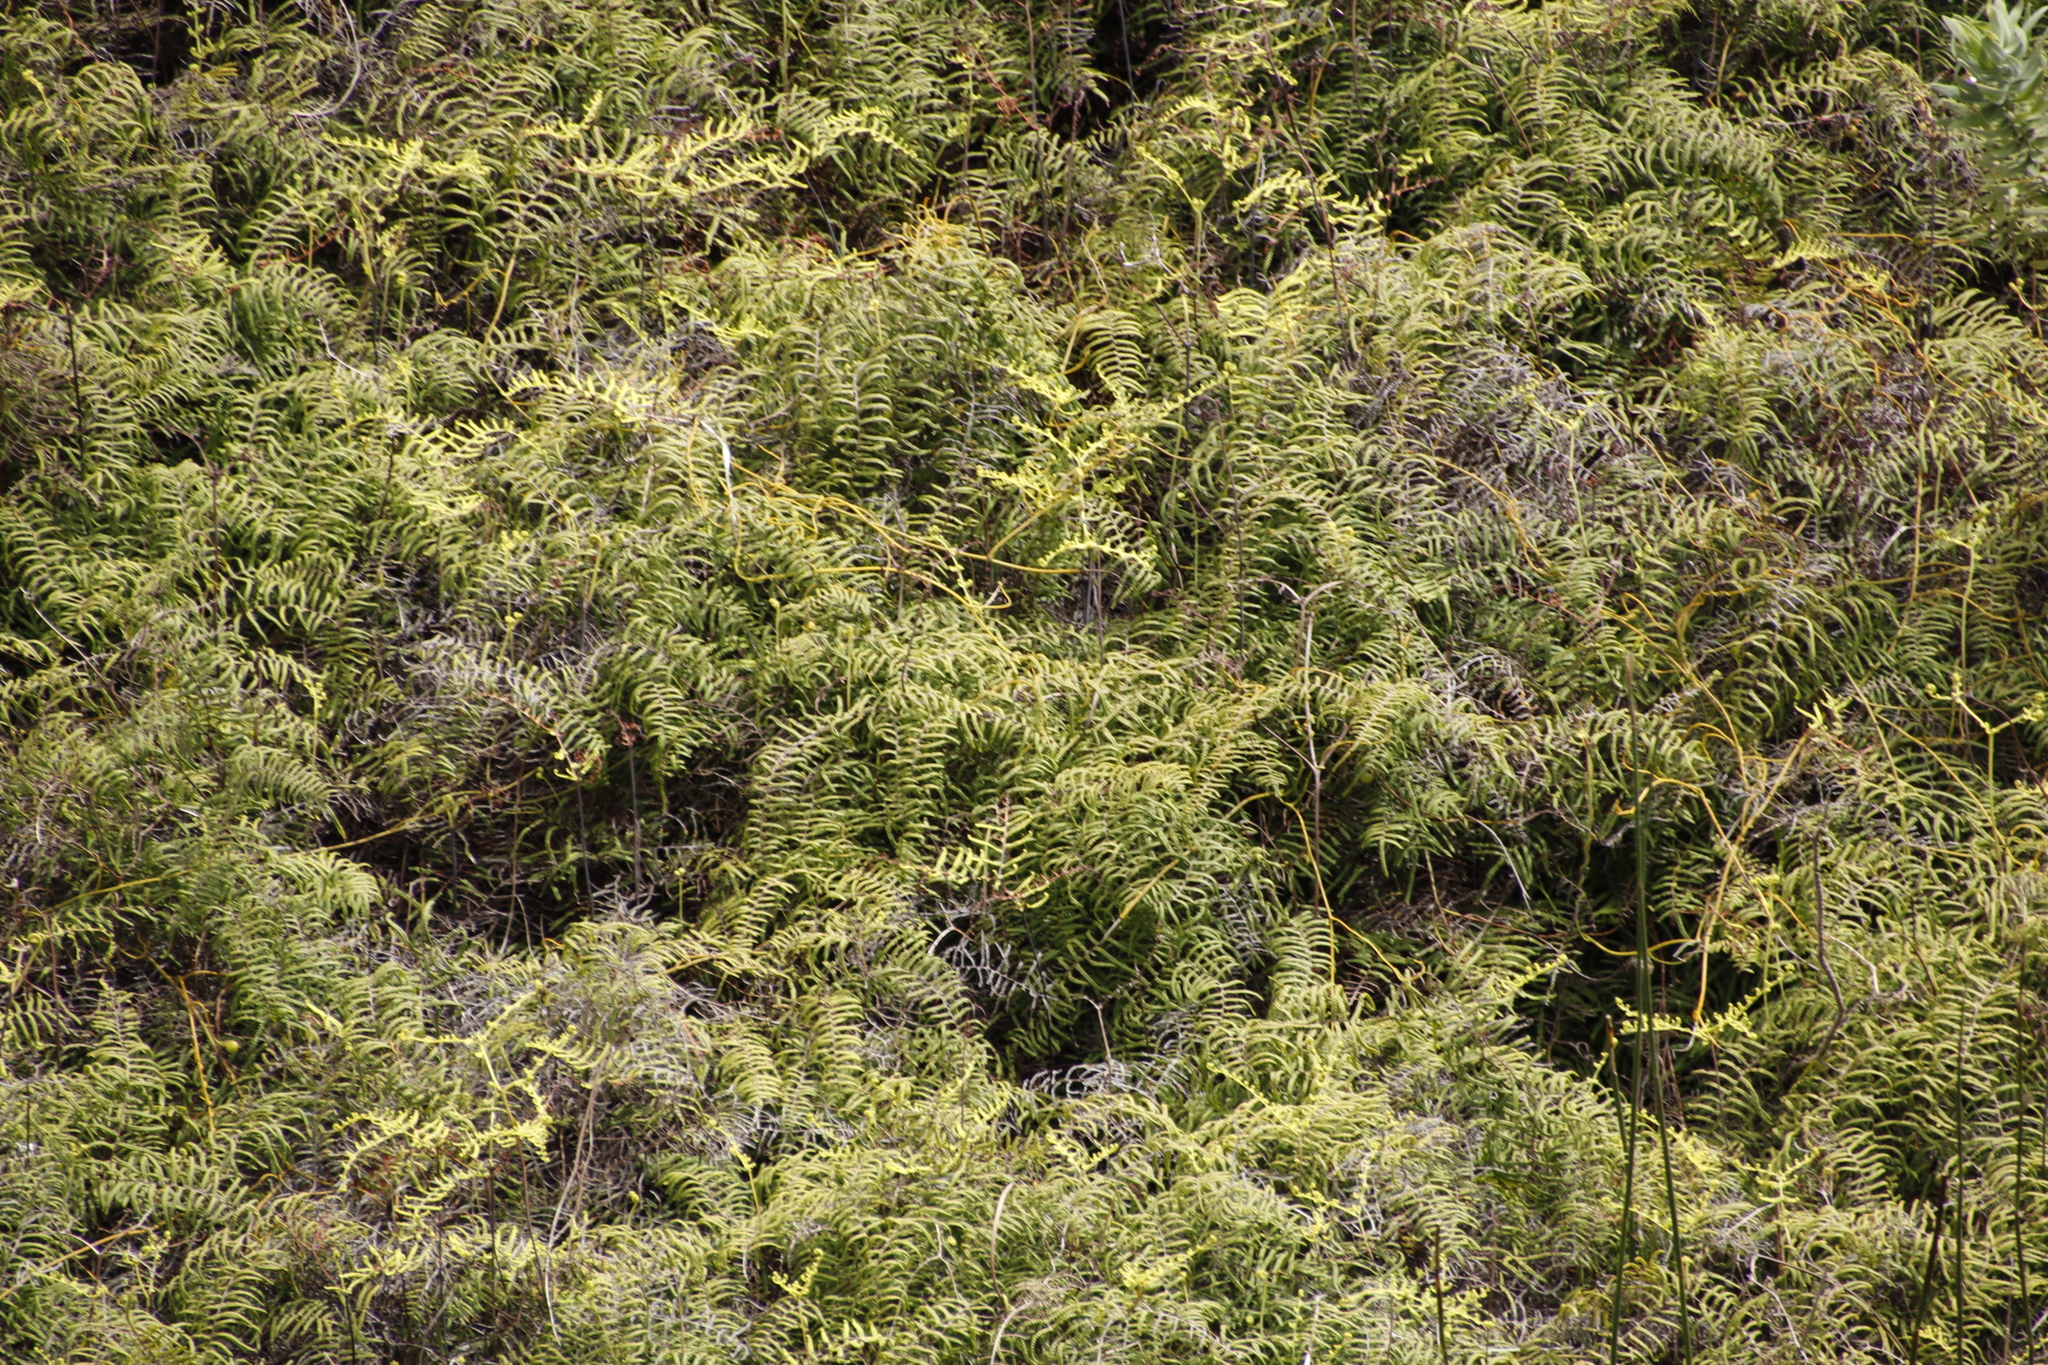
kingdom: Plantae
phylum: Tracheophyta
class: Polypodiopsida
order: Gleicheniales
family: Gleicheniaceae
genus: Gleichenia
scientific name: Gleichenia polypodioides
